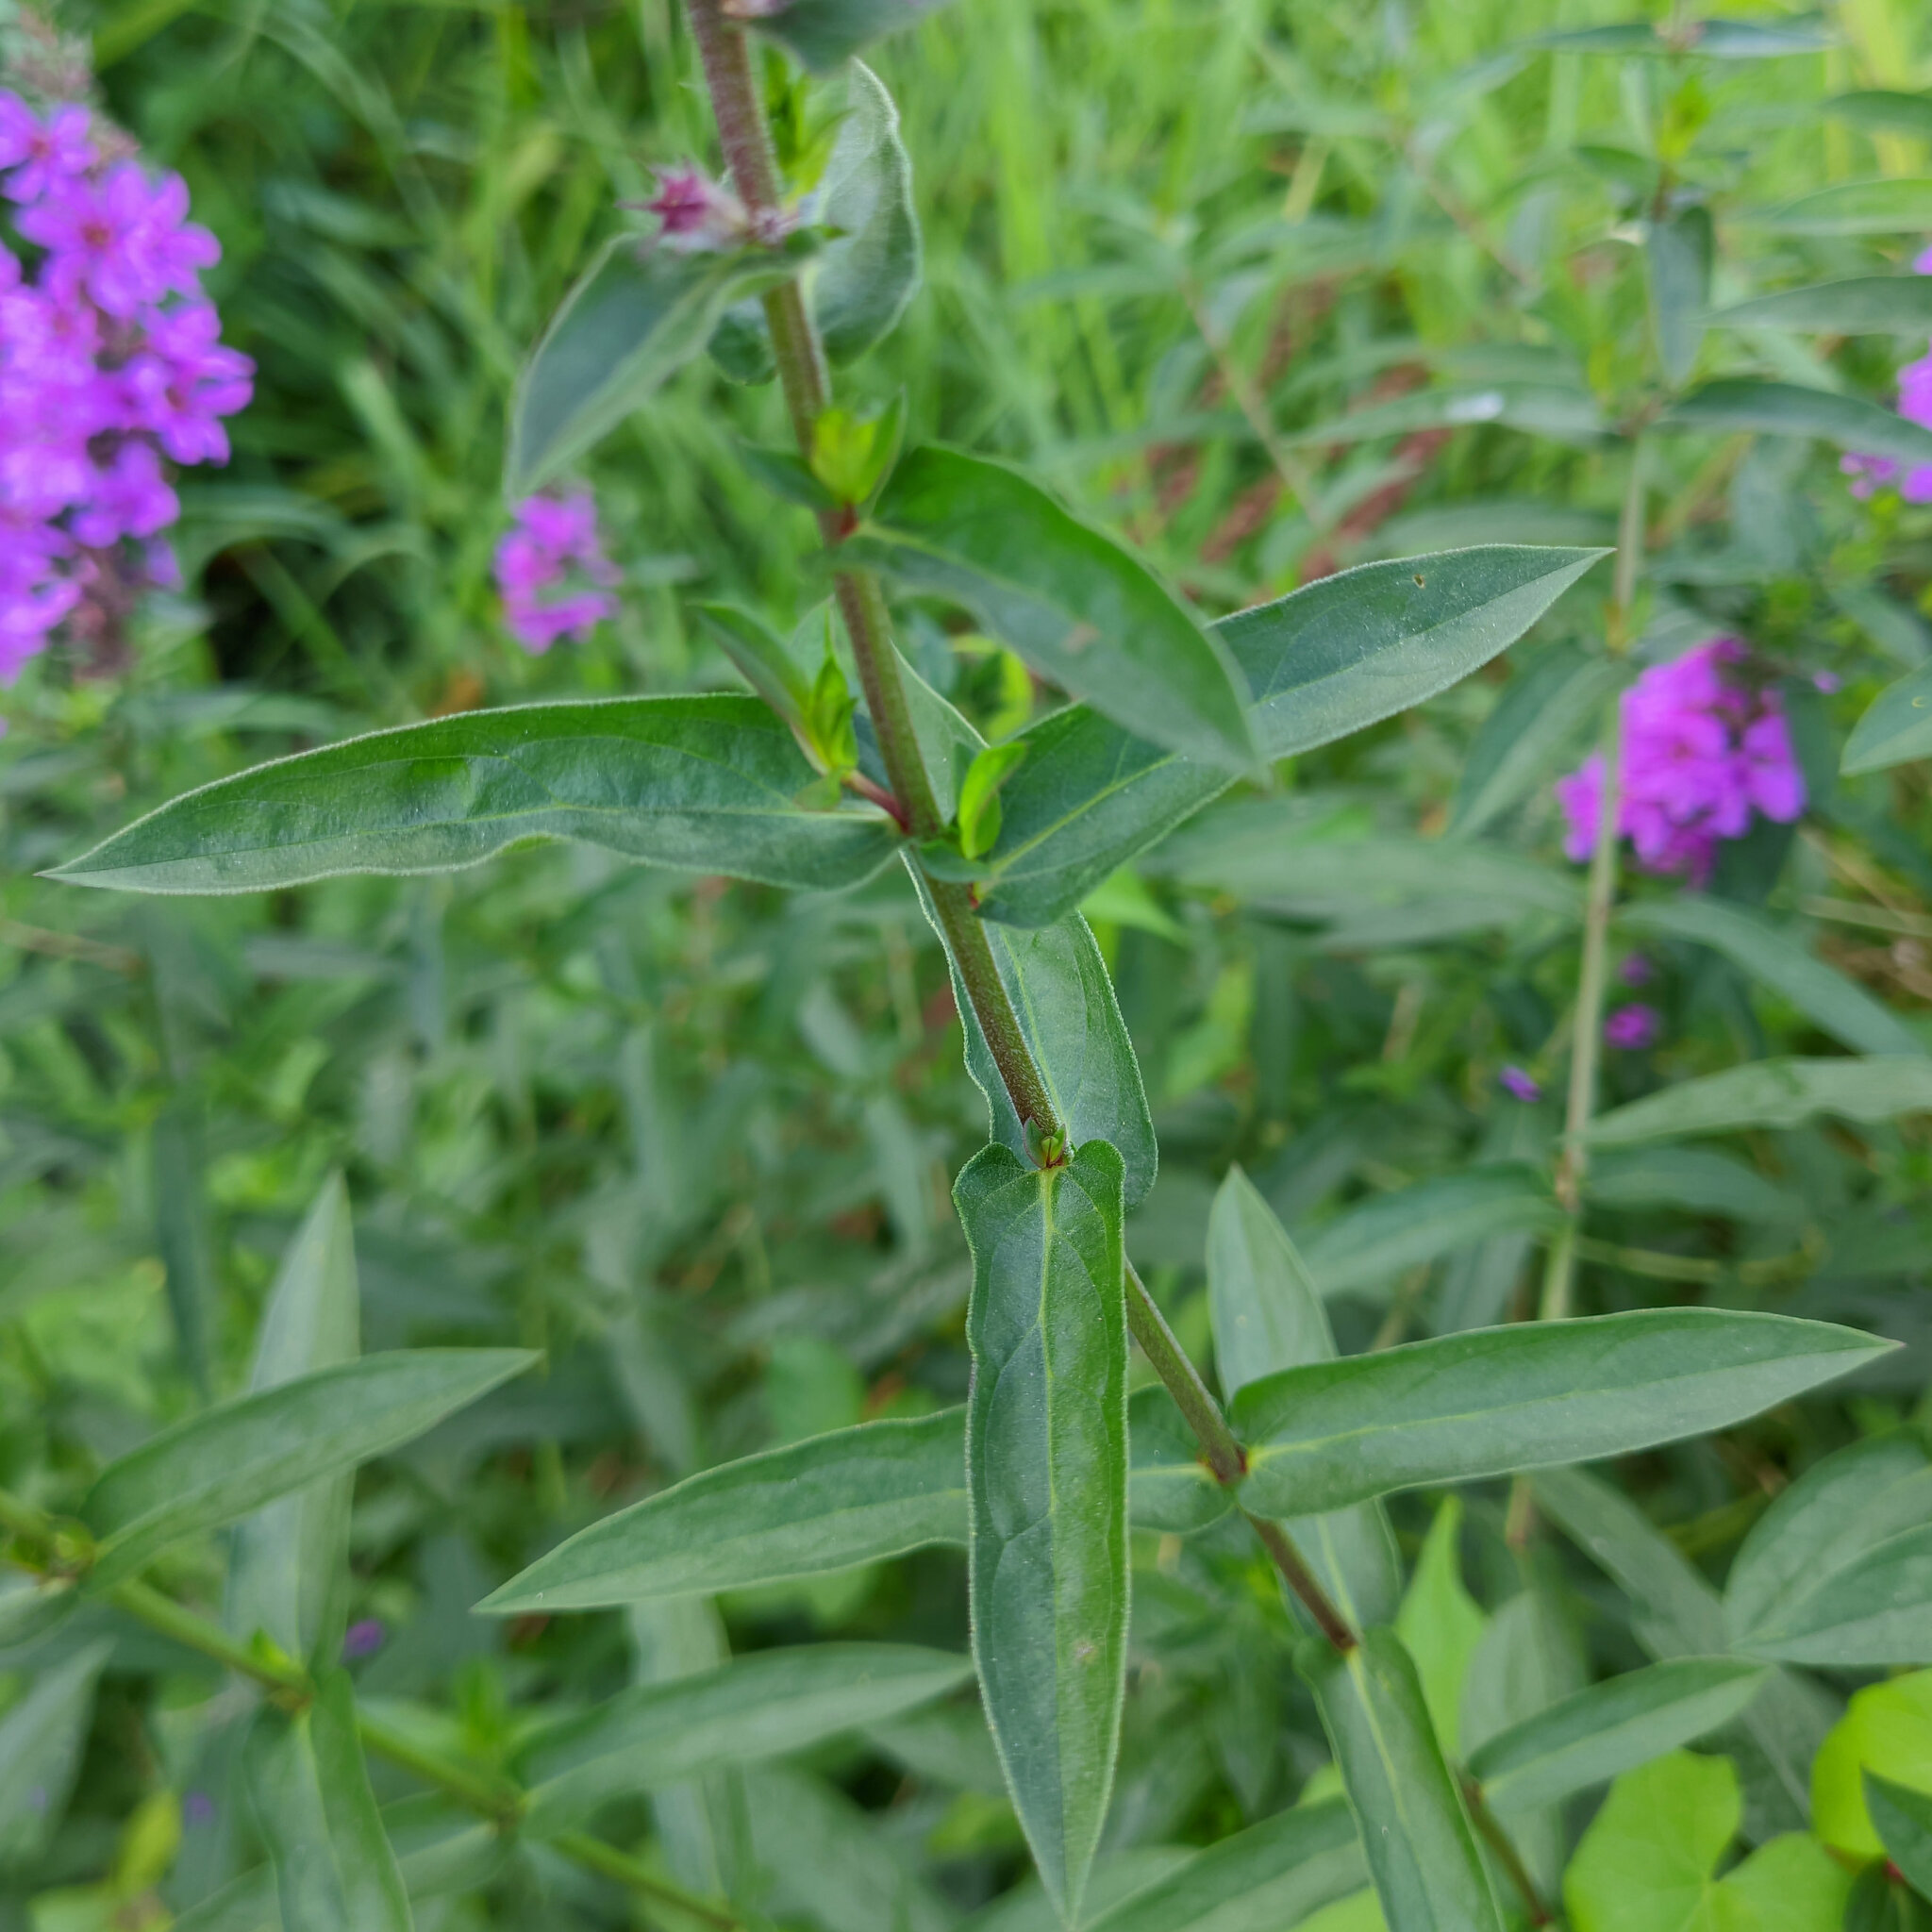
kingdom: Plantae
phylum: Tracheophyta
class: Magnoliopsida
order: Myrtales
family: Onagraceae
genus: Epilobium
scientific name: Epilobium hirsutum
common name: Great willowherb
